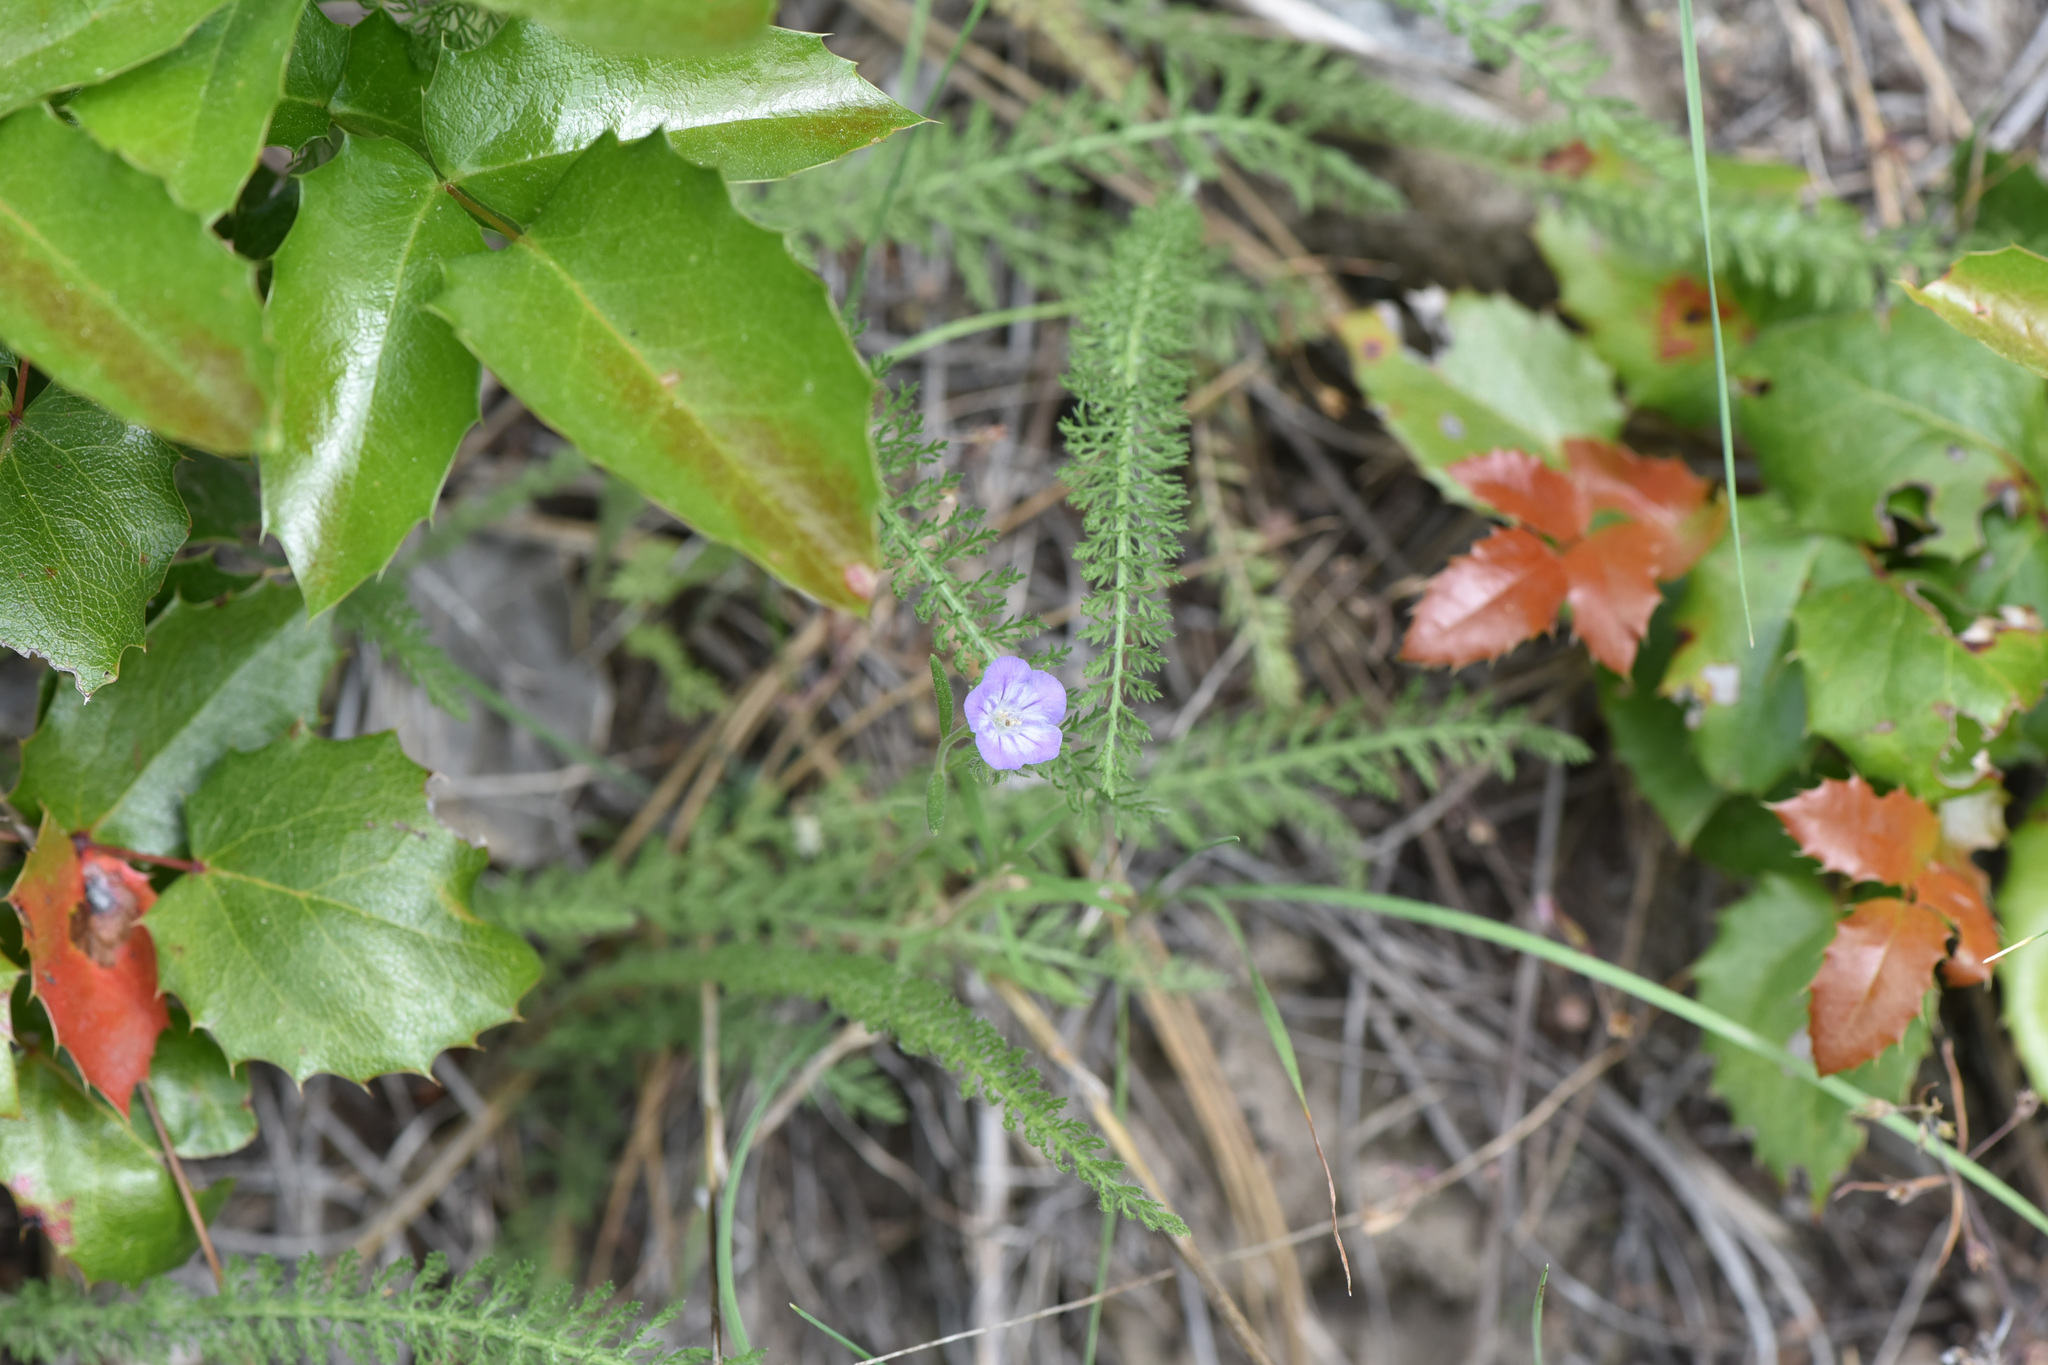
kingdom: Plantae
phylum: Tracheophyta
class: Magnoliopsida
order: Boraginales
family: Hydrophyllaceae
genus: Phacelia
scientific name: Phacelia linearis
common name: Linear-leaved phacelia
